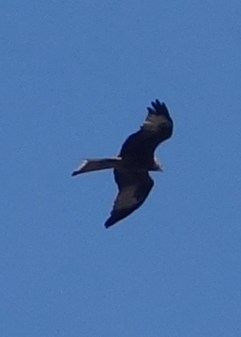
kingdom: Animalia
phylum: Chordata
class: Aves
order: Accipitriformes
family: Accipitridae
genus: Milvus
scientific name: Milvus milvus
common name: Red kite
